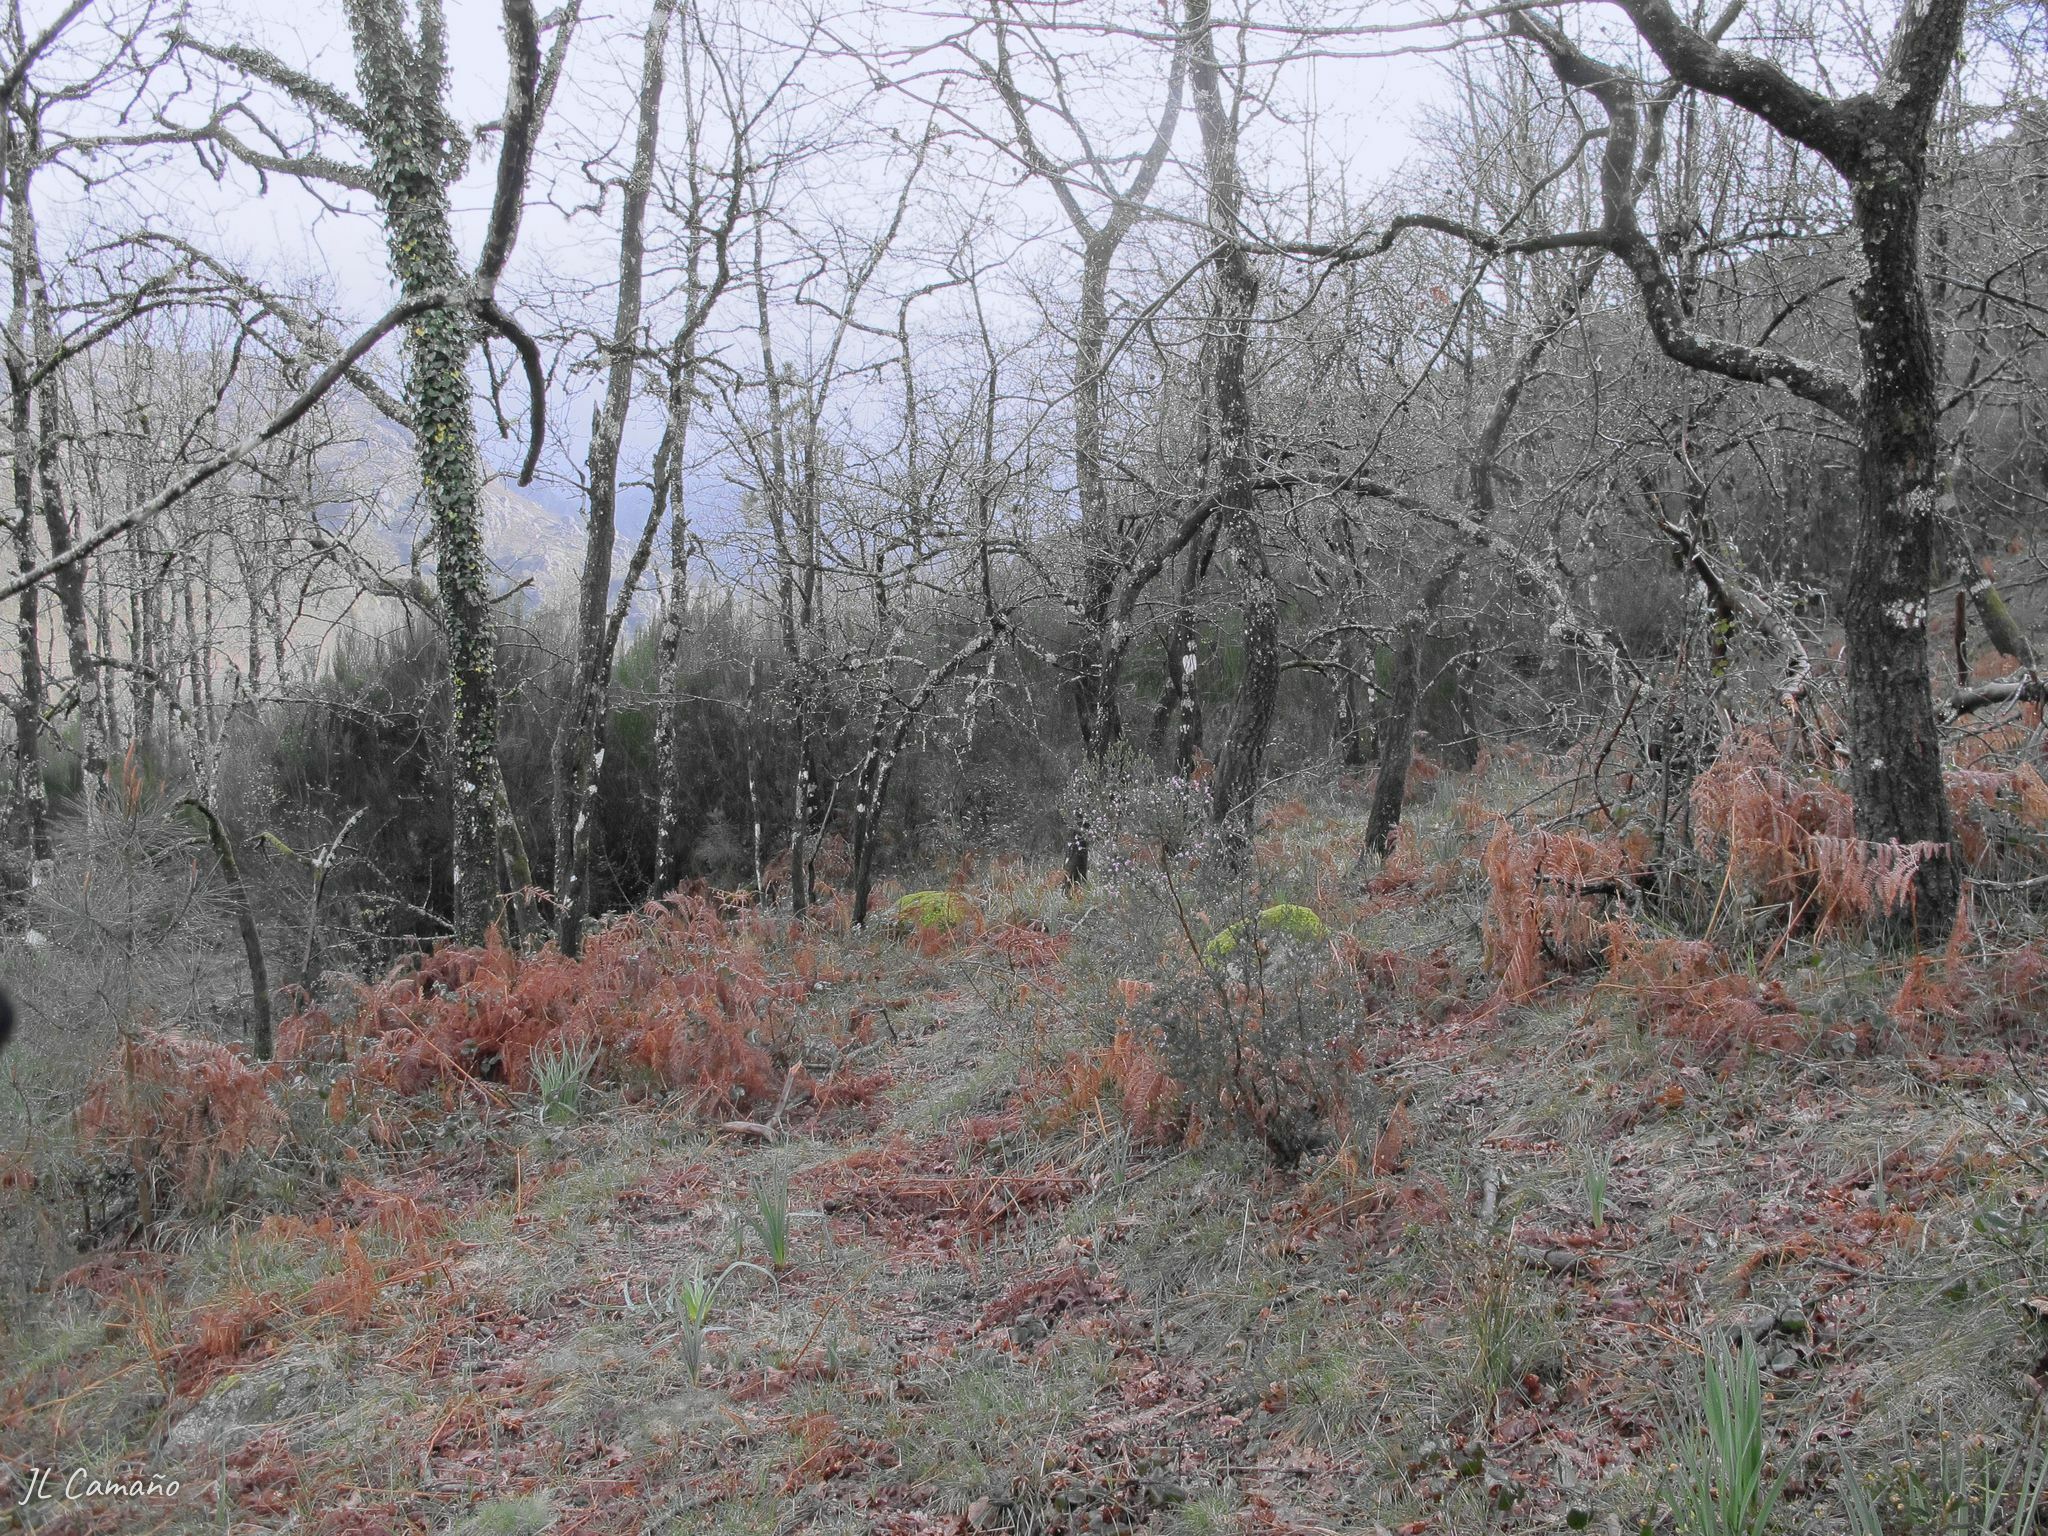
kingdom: Plantae
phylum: Marchantiophyta
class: Jungermanniopsida
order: Porellales
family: Frullaniaceae
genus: Frullania
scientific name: Frullania tamarisci
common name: Tamarisk scalewort
